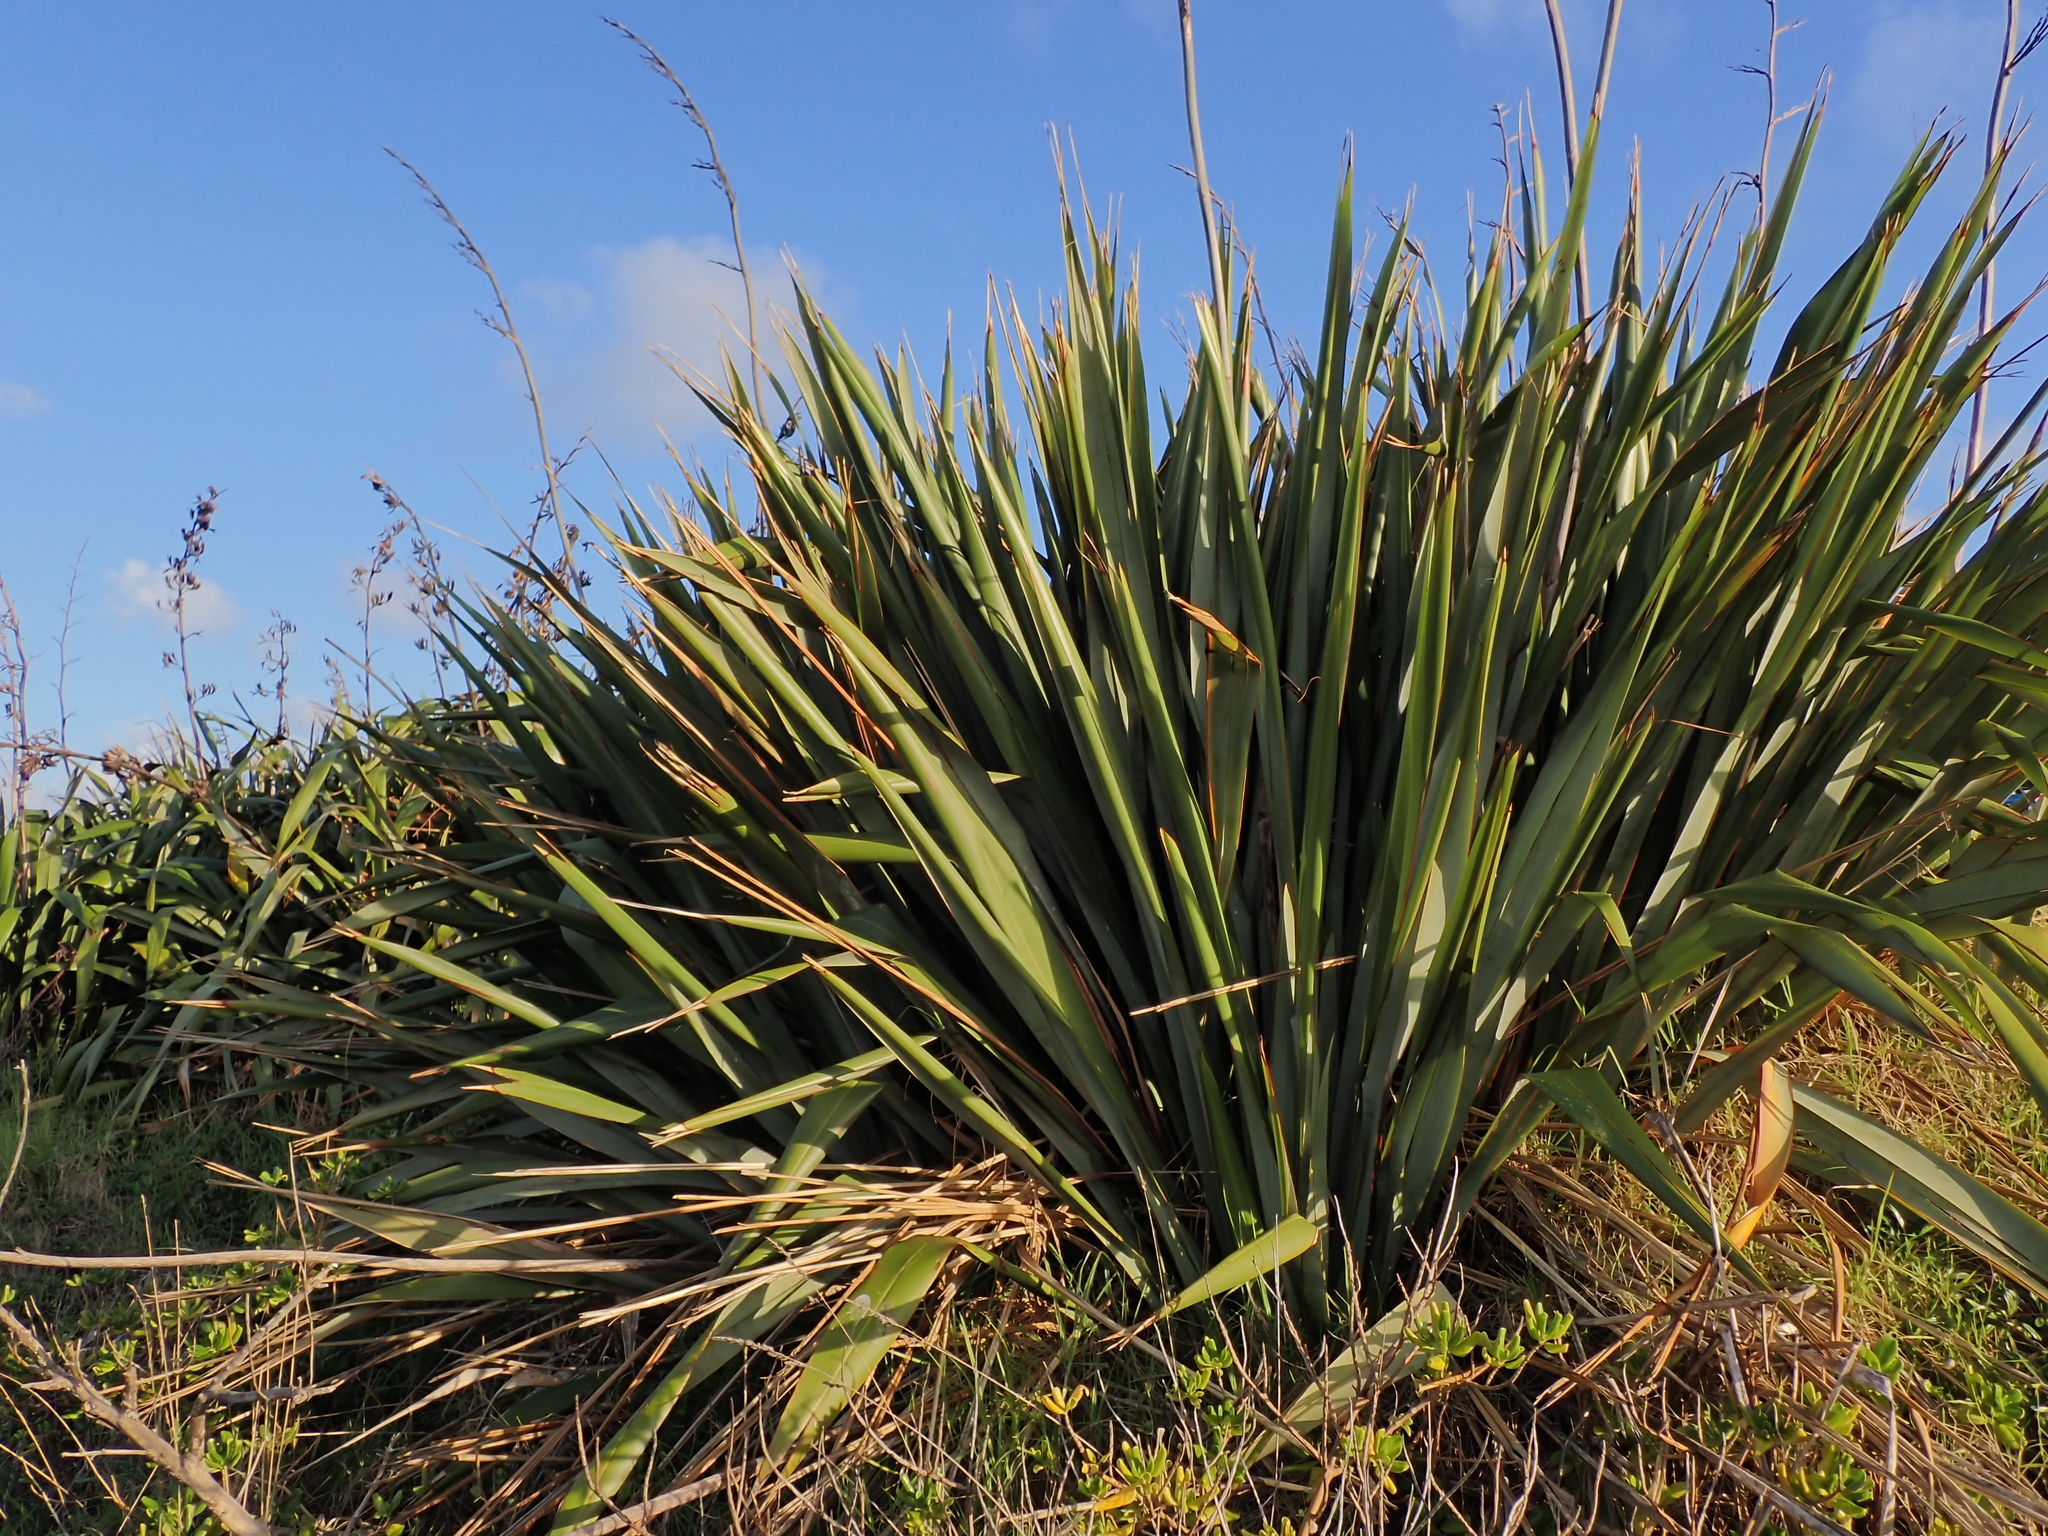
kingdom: Plantae
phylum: Tracheophyta
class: Liliopsida
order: Asparagales
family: Asphodelaceae
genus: Phormium
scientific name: Phormium tenax
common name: New zealand flax
